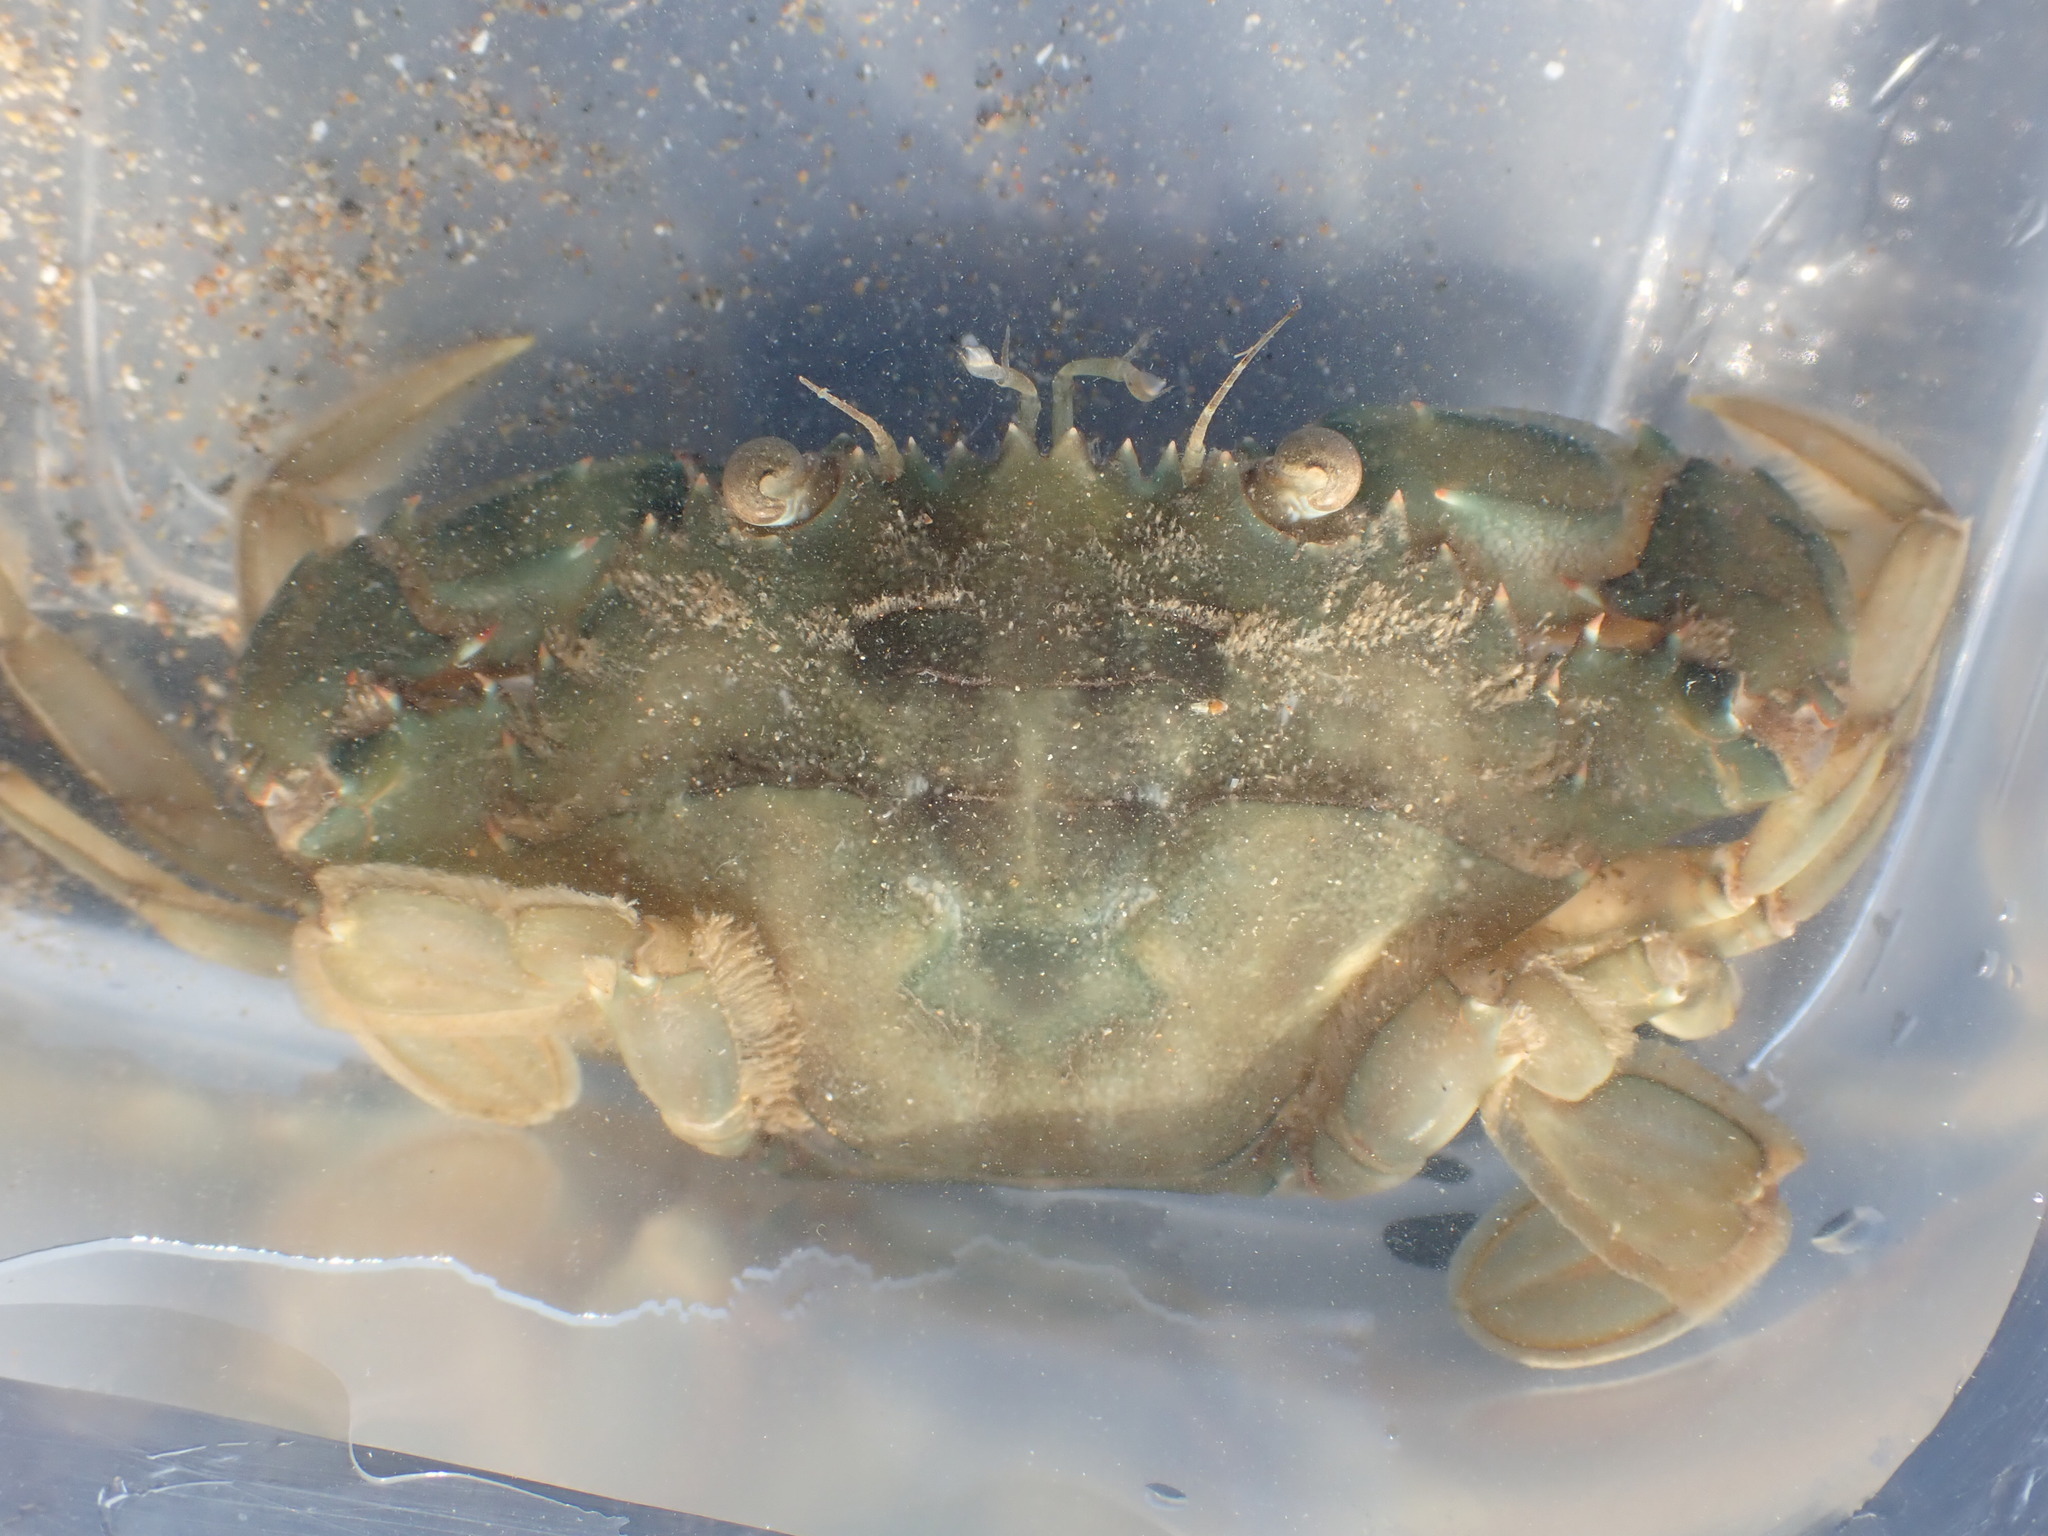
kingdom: Animalia
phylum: Arthropoda
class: Malacostraca
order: Decapoda
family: Portunidae
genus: Charybdis
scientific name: Charybdis japonica
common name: Asian paddle crab
